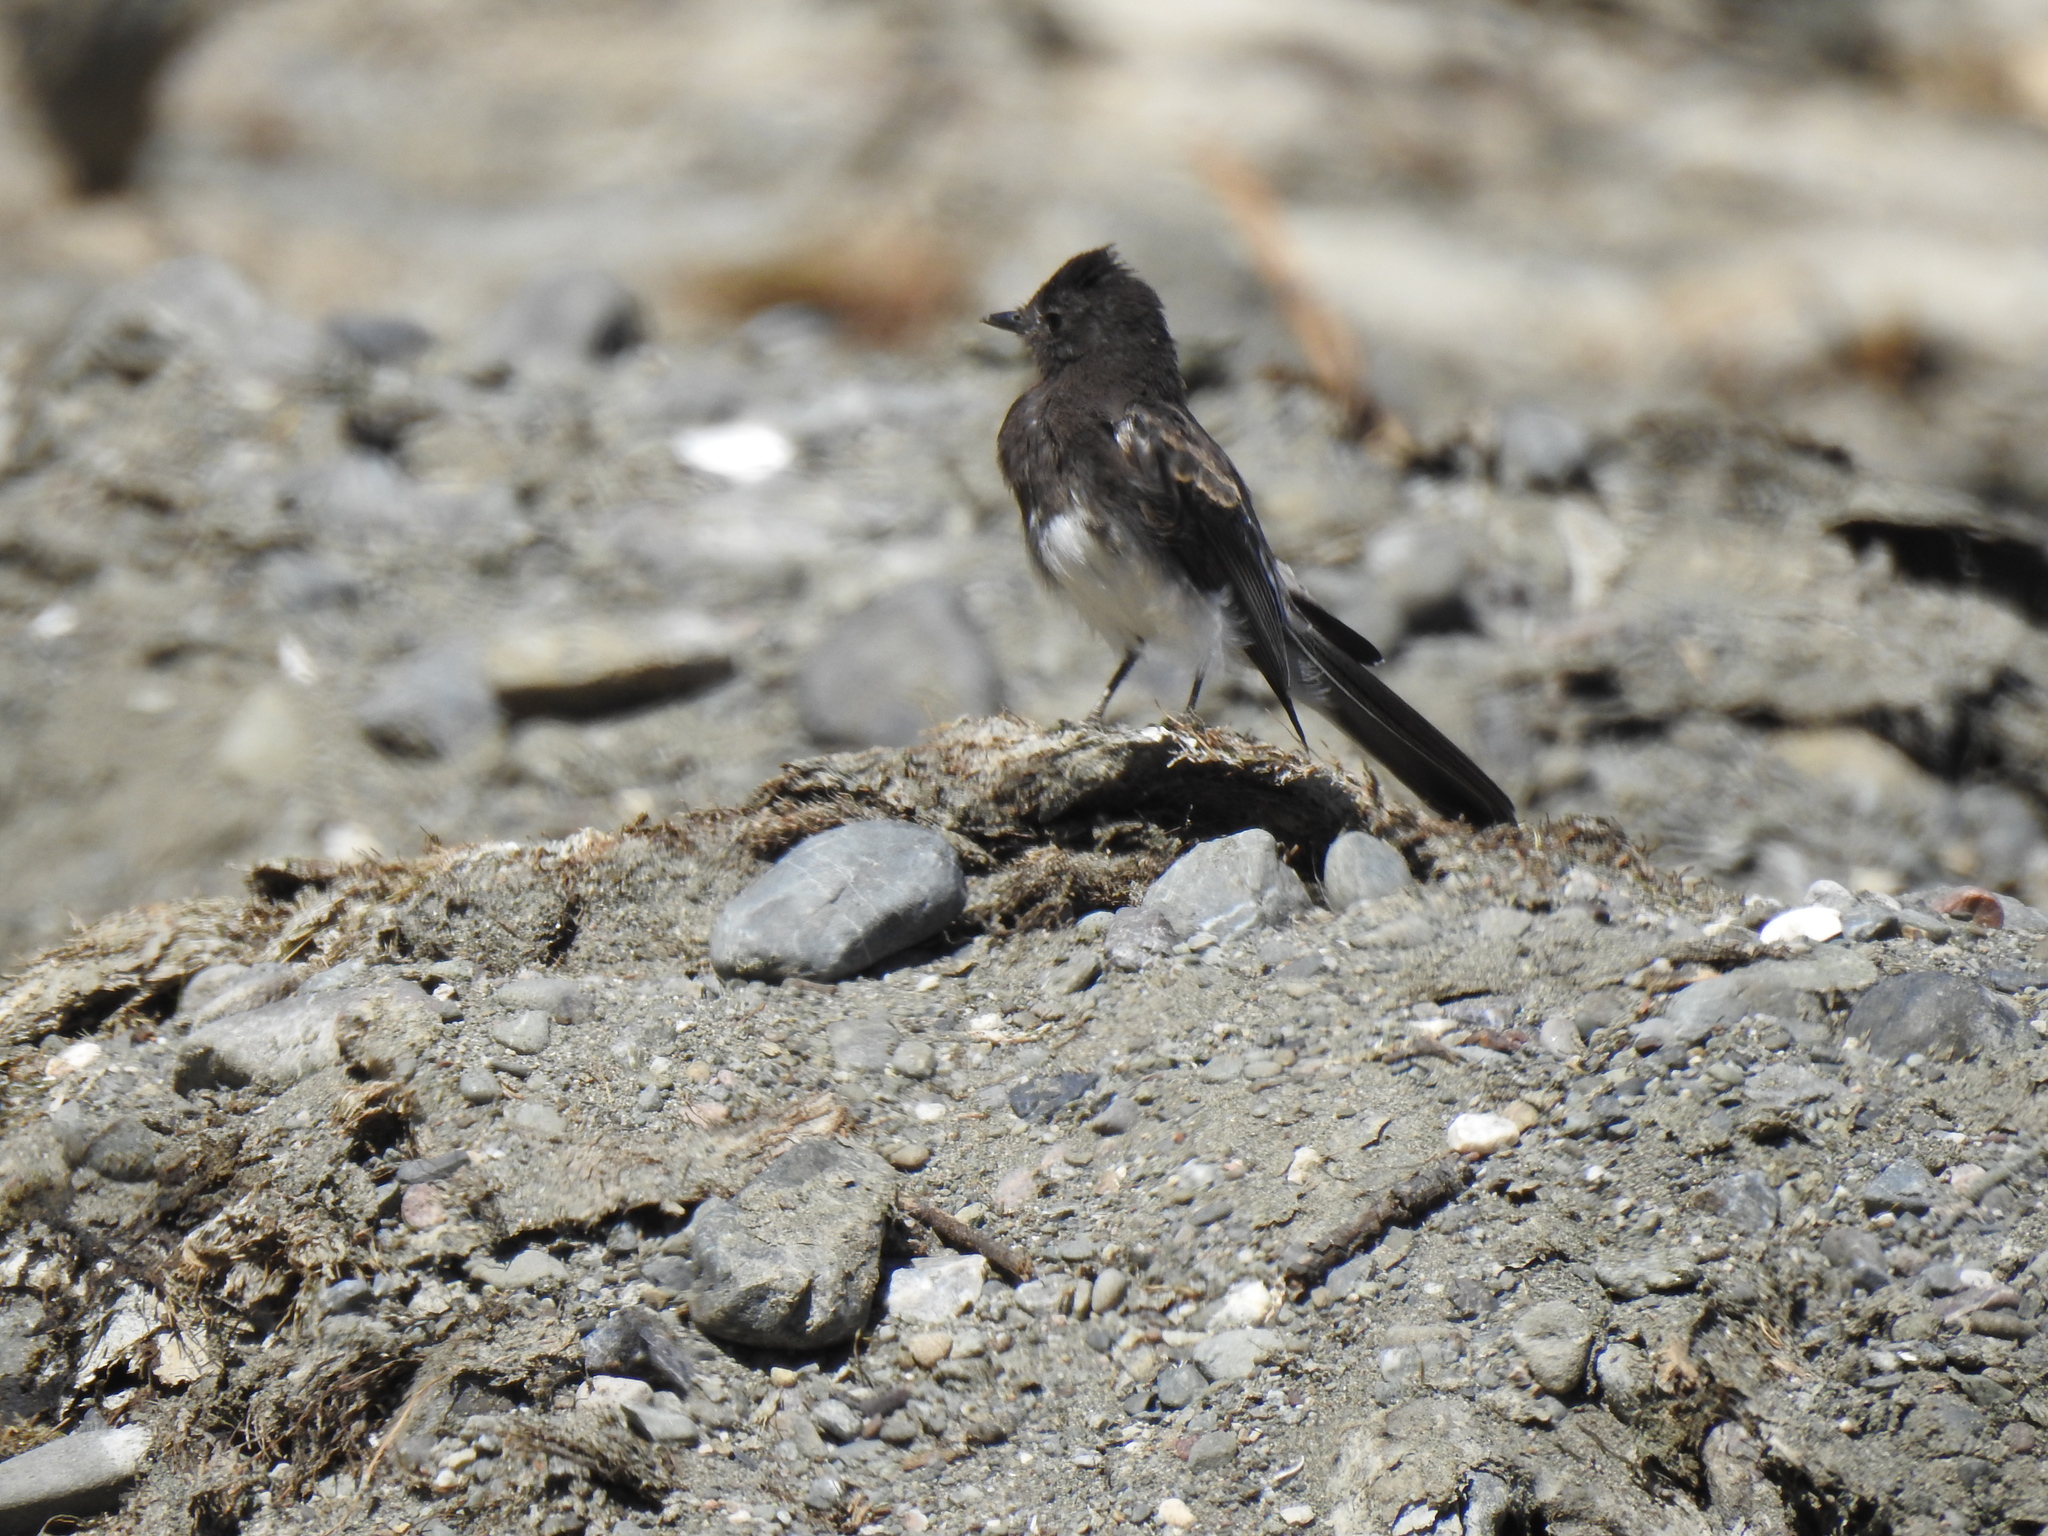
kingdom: Animalia
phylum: Chordata
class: Aves
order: Passeriformes
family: Tyrannidae
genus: Sayornis
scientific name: Sayornis nigricans
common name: Black phoebe
